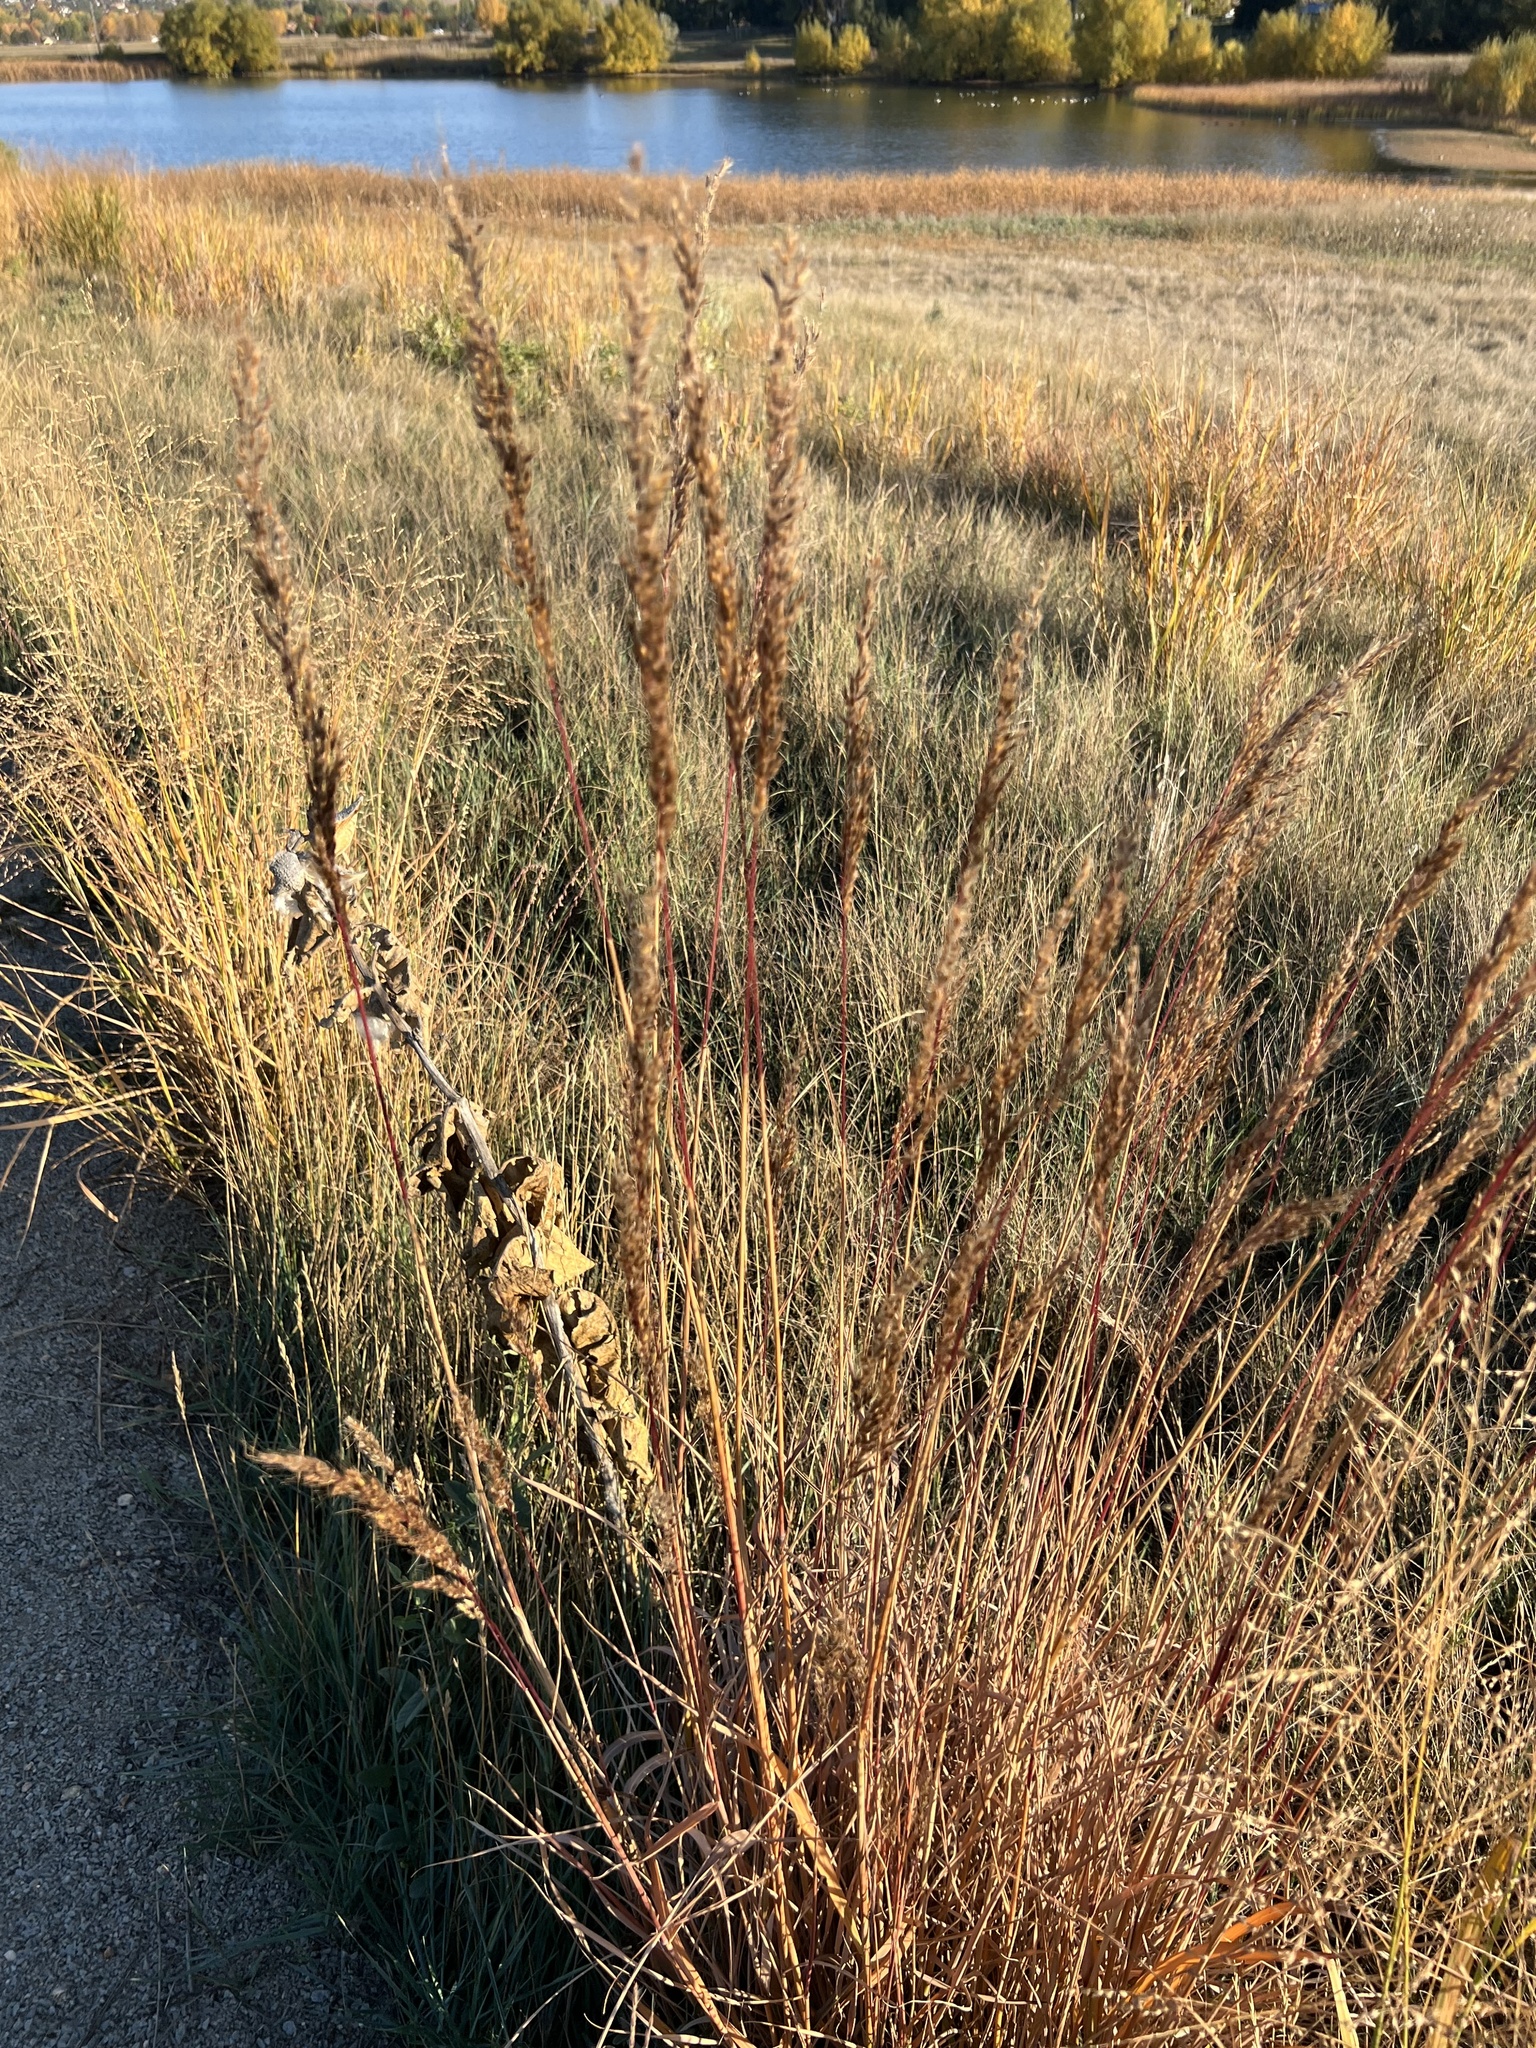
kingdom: Plantae
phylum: Tracheophyta
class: Liliopsida
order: Poales
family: Poaceae
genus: Sorghastrum
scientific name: Sorghastrum nutans
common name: Indian grass
